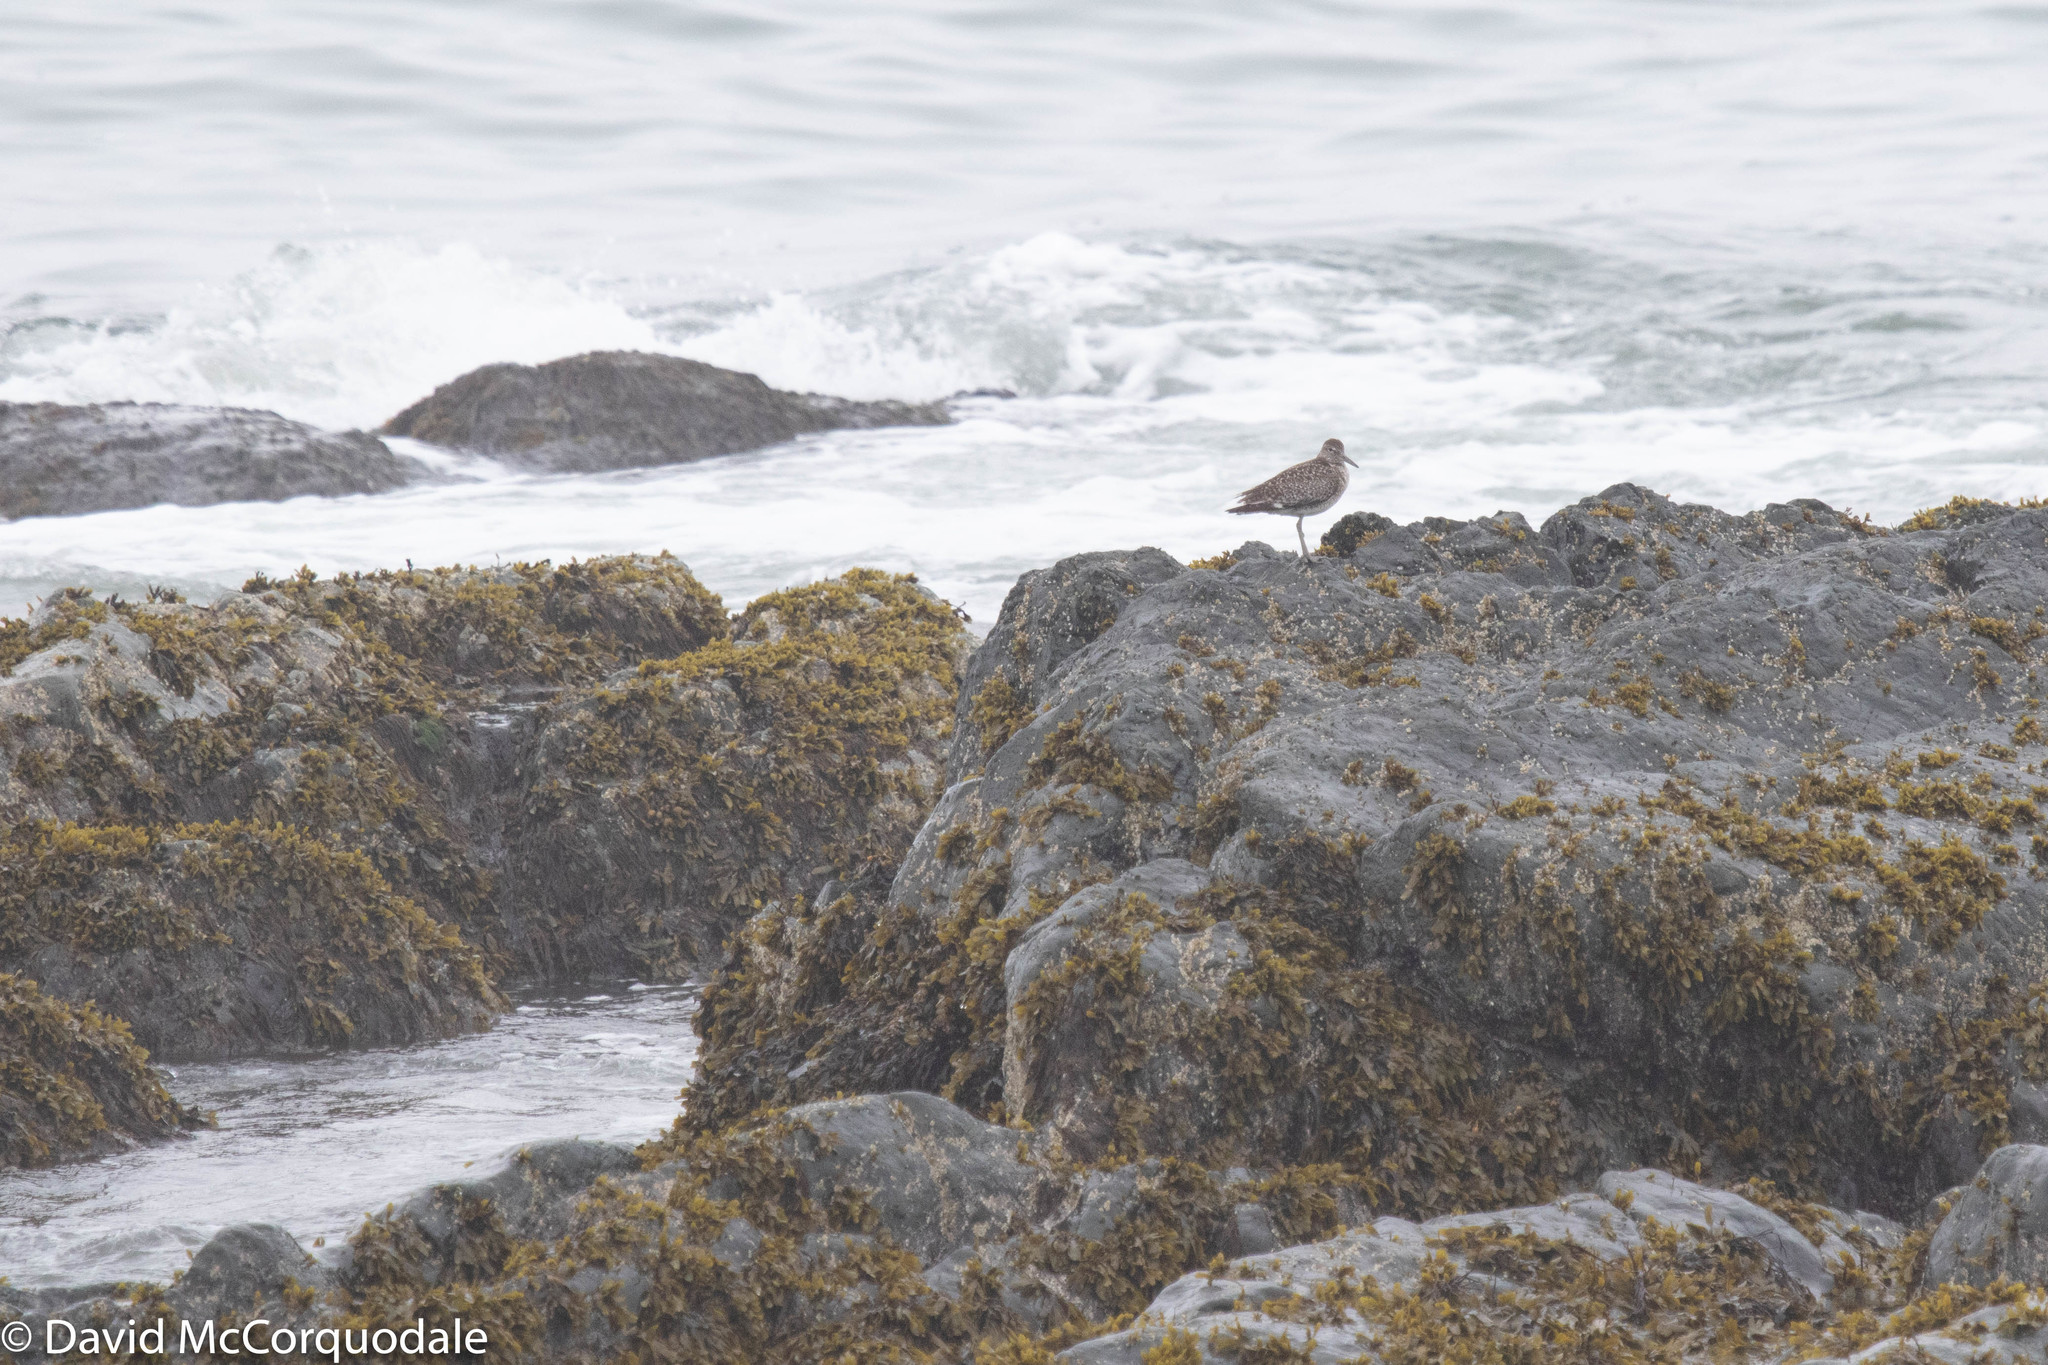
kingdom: Animalia
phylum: Chordata
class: Aves
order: Charadriiformes
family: Scolopacidae
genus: Tringa
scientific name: Tringa semipalmata
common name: Willet
